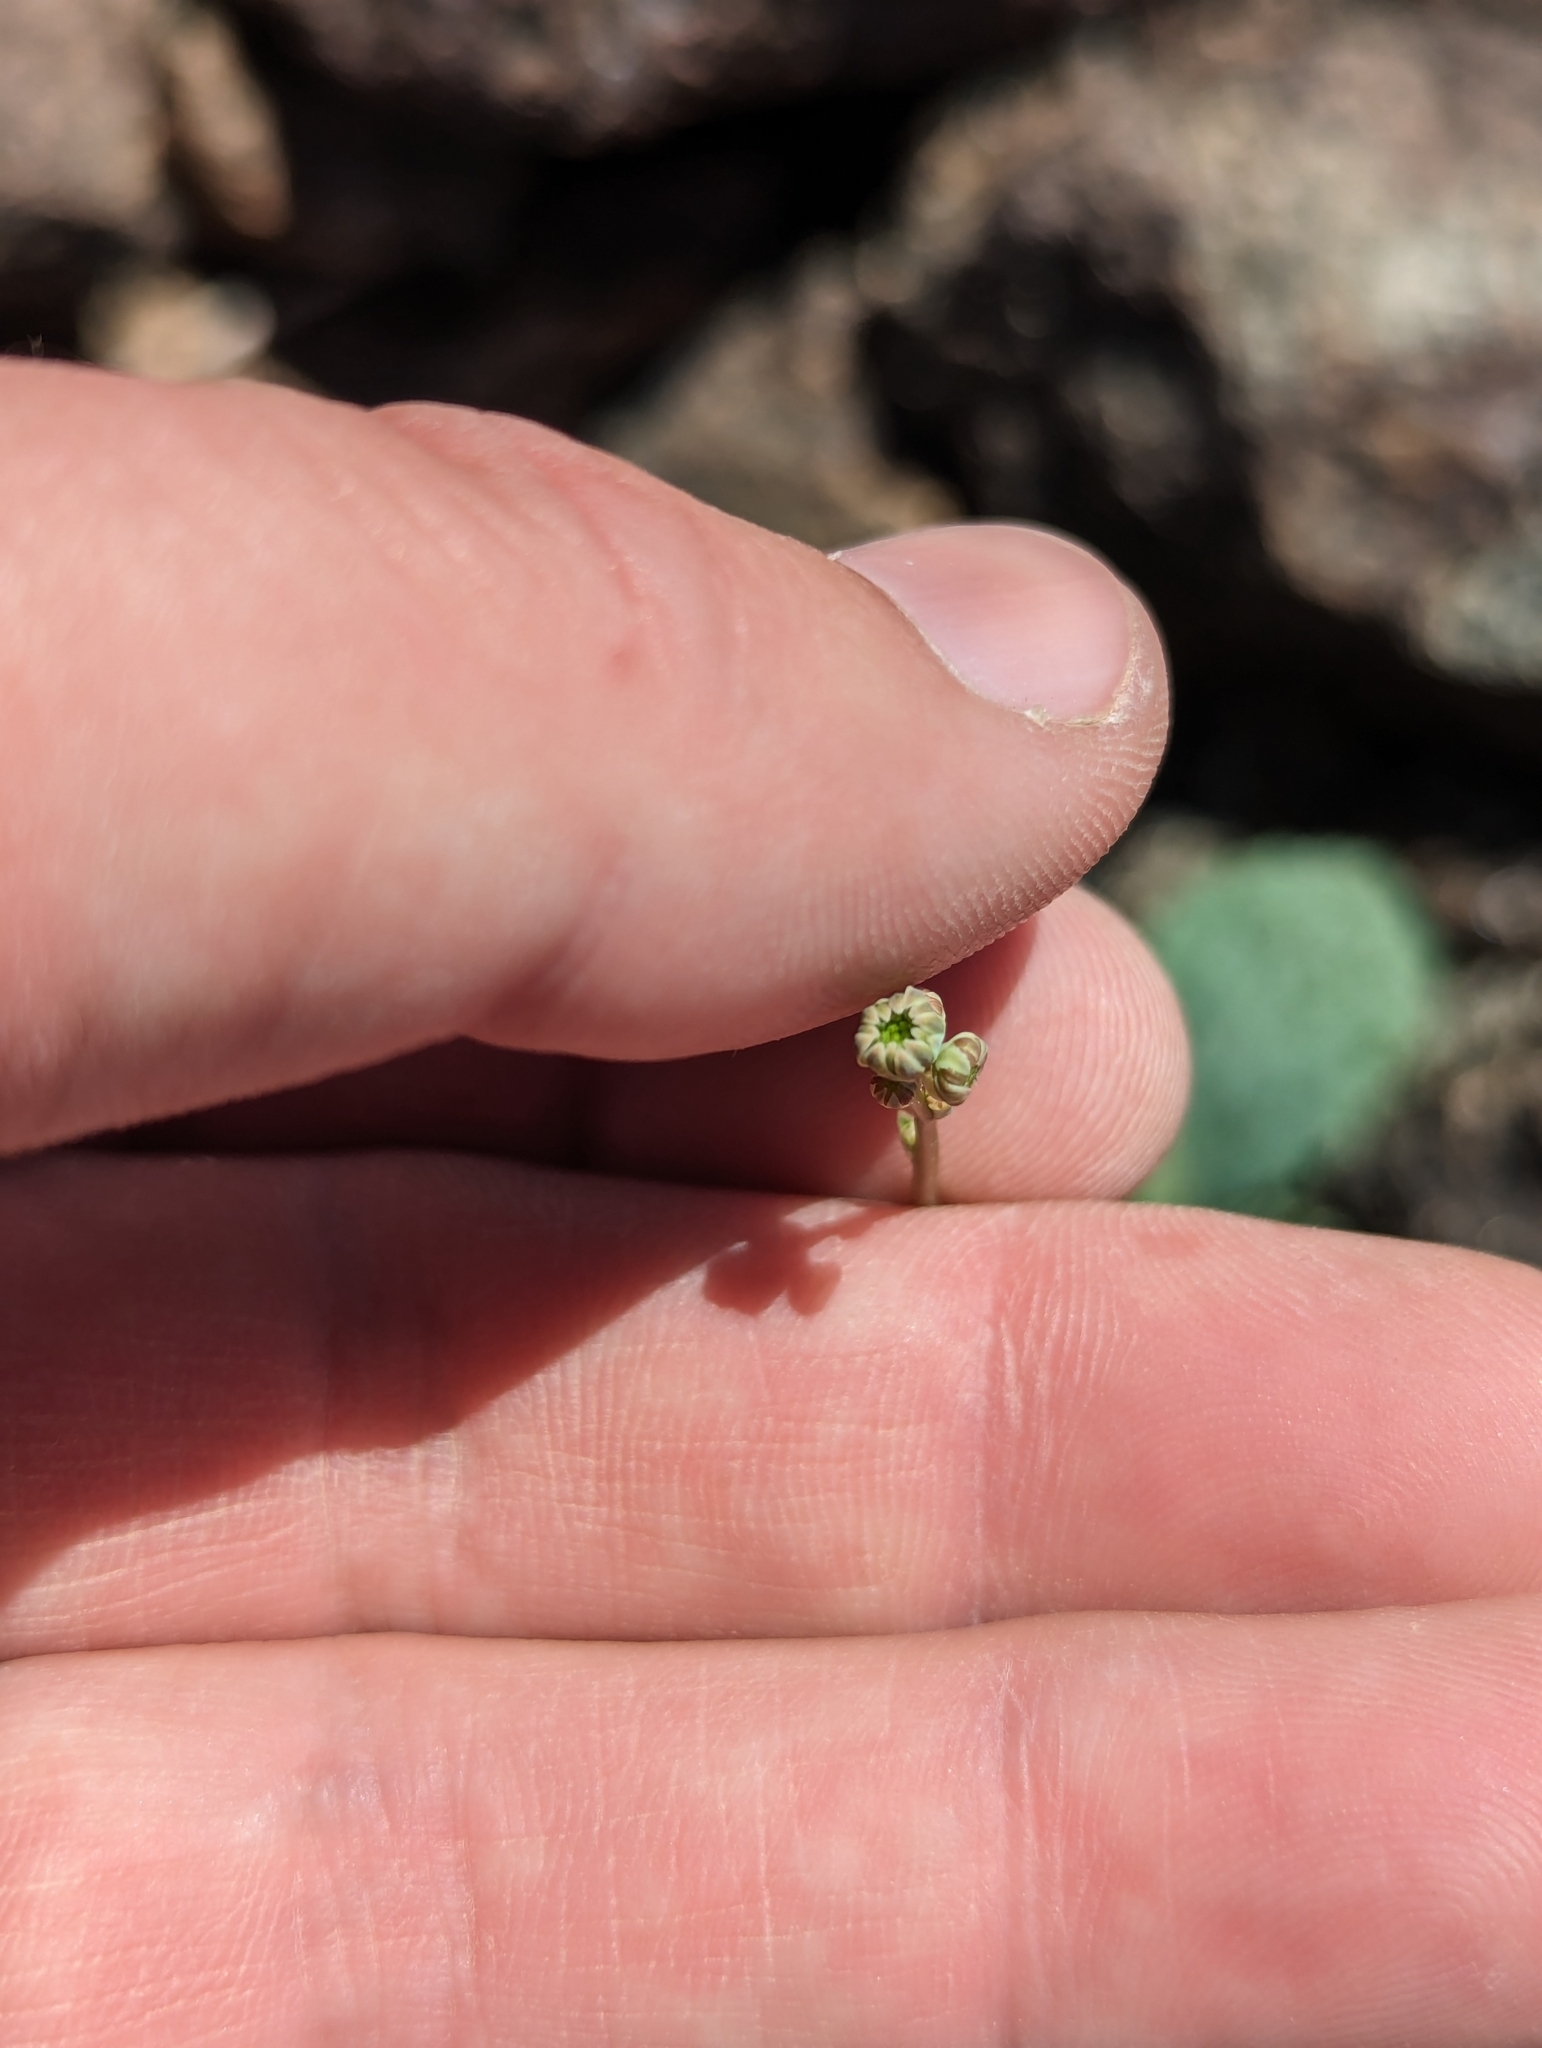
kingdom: Plantae
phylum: Tracheophyta
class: Magnoliopsida
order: Asterales
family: Asteraceae
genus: Atrichoseris
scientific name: Atrichoseris platyphylla
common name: Tobaccoweed
